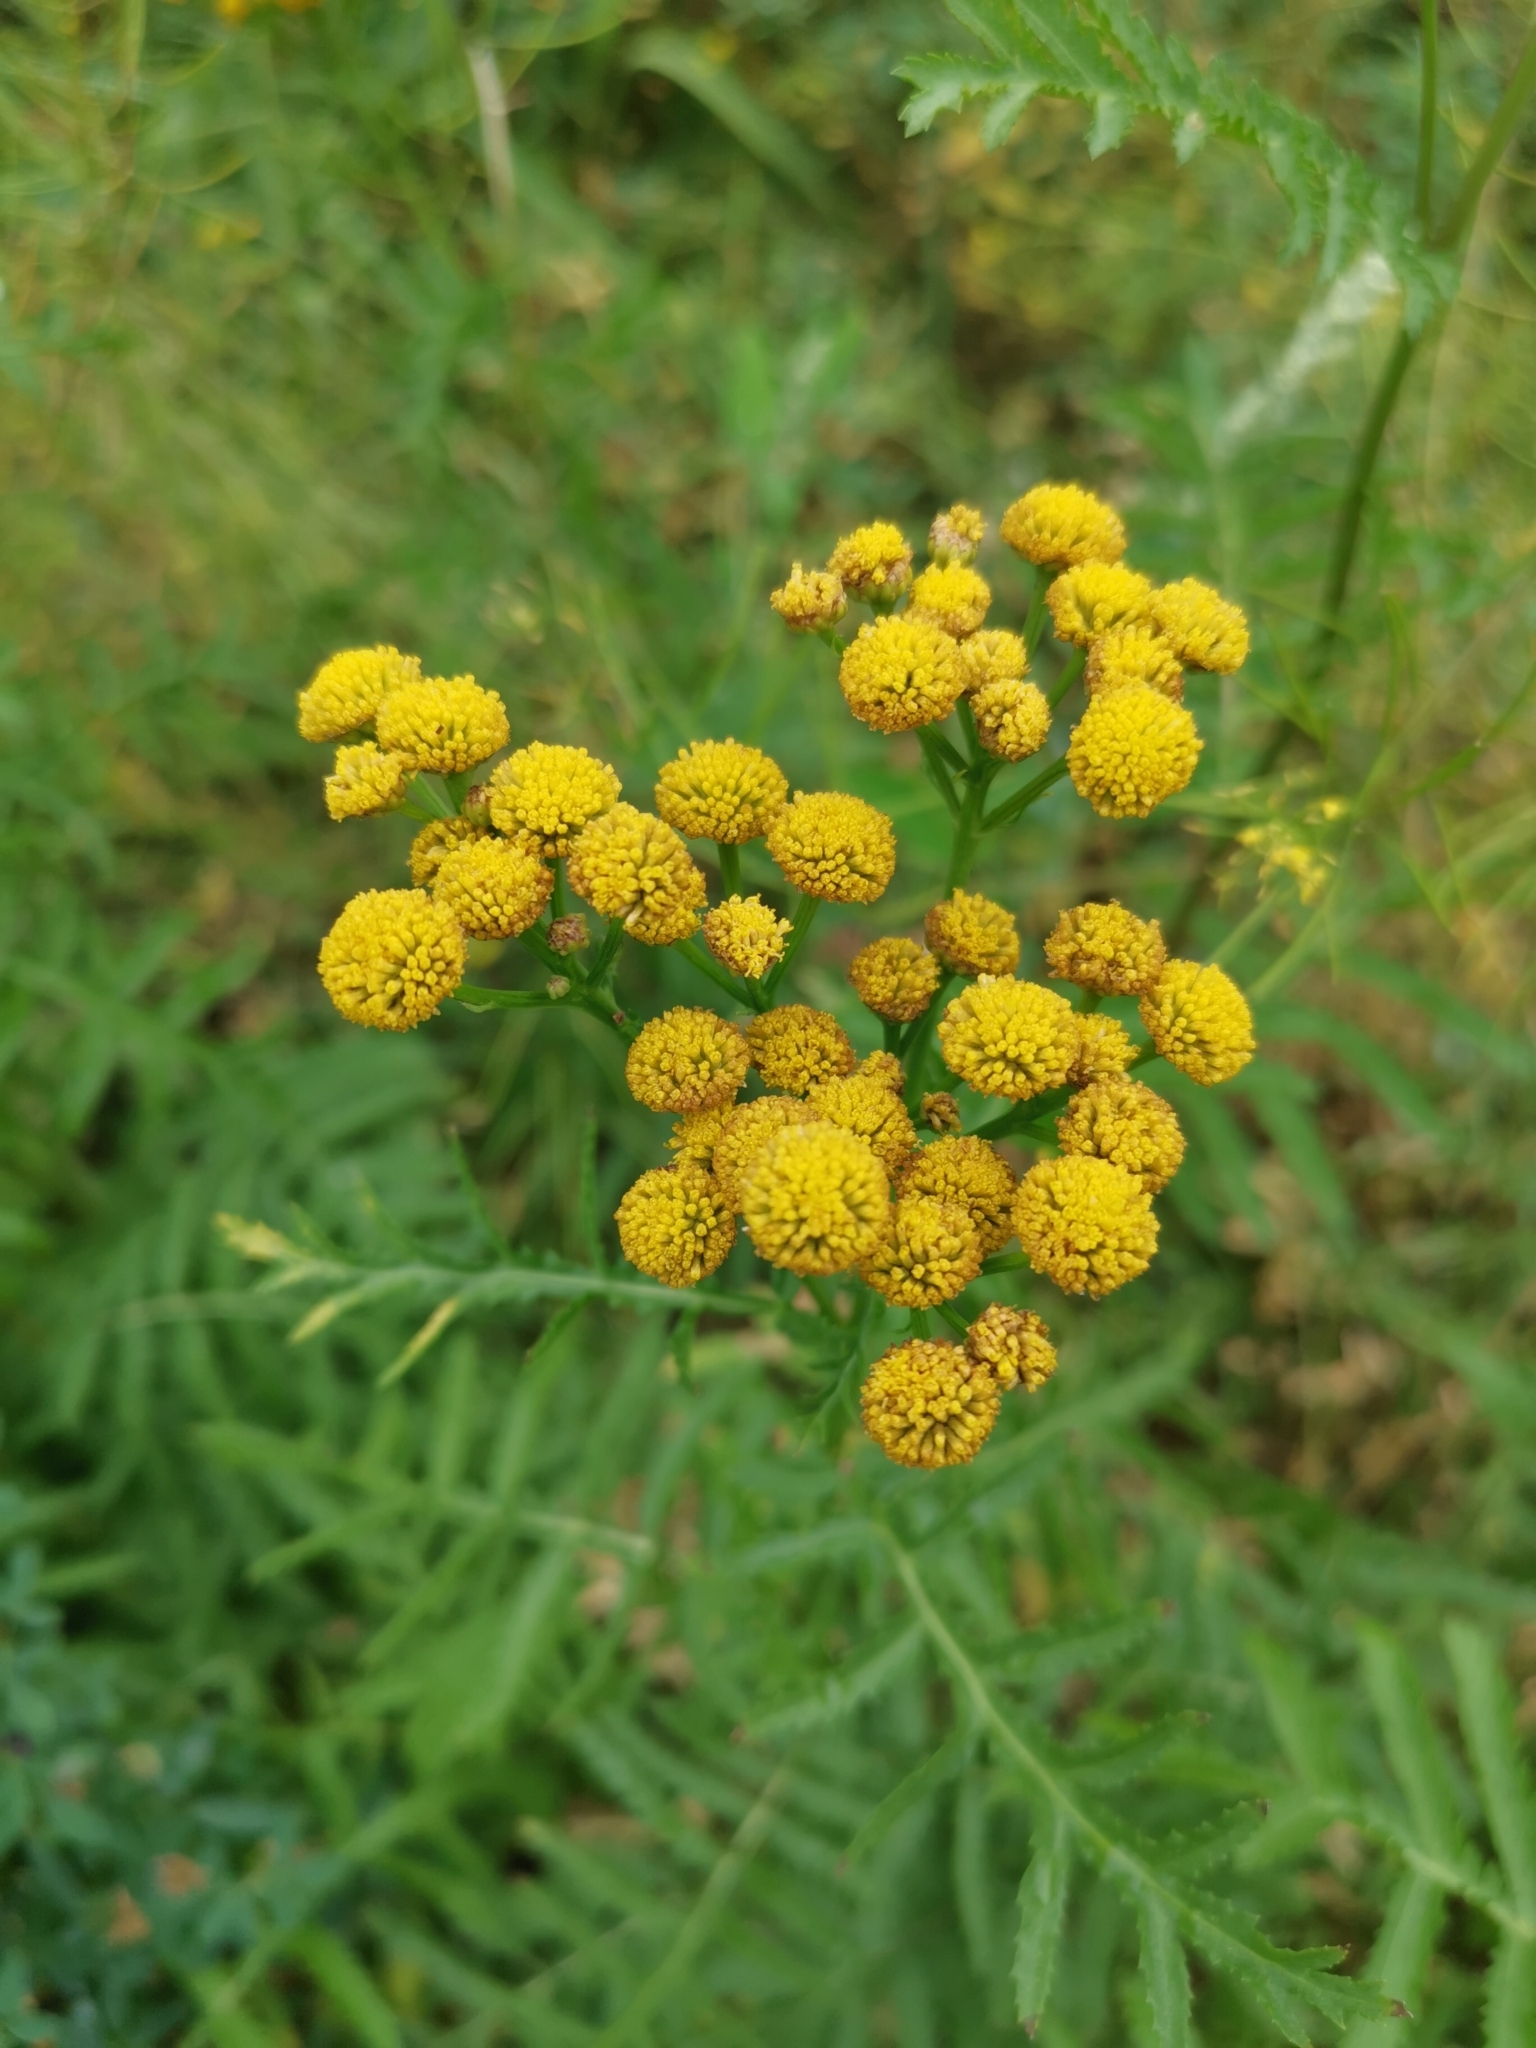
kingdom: Plantae
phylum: Tracheophyta
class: Magnoliopsida
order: Asterales
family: Asteraceae
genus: Tanacetum
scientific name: Tanacetum vulgare
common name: Common tansy
